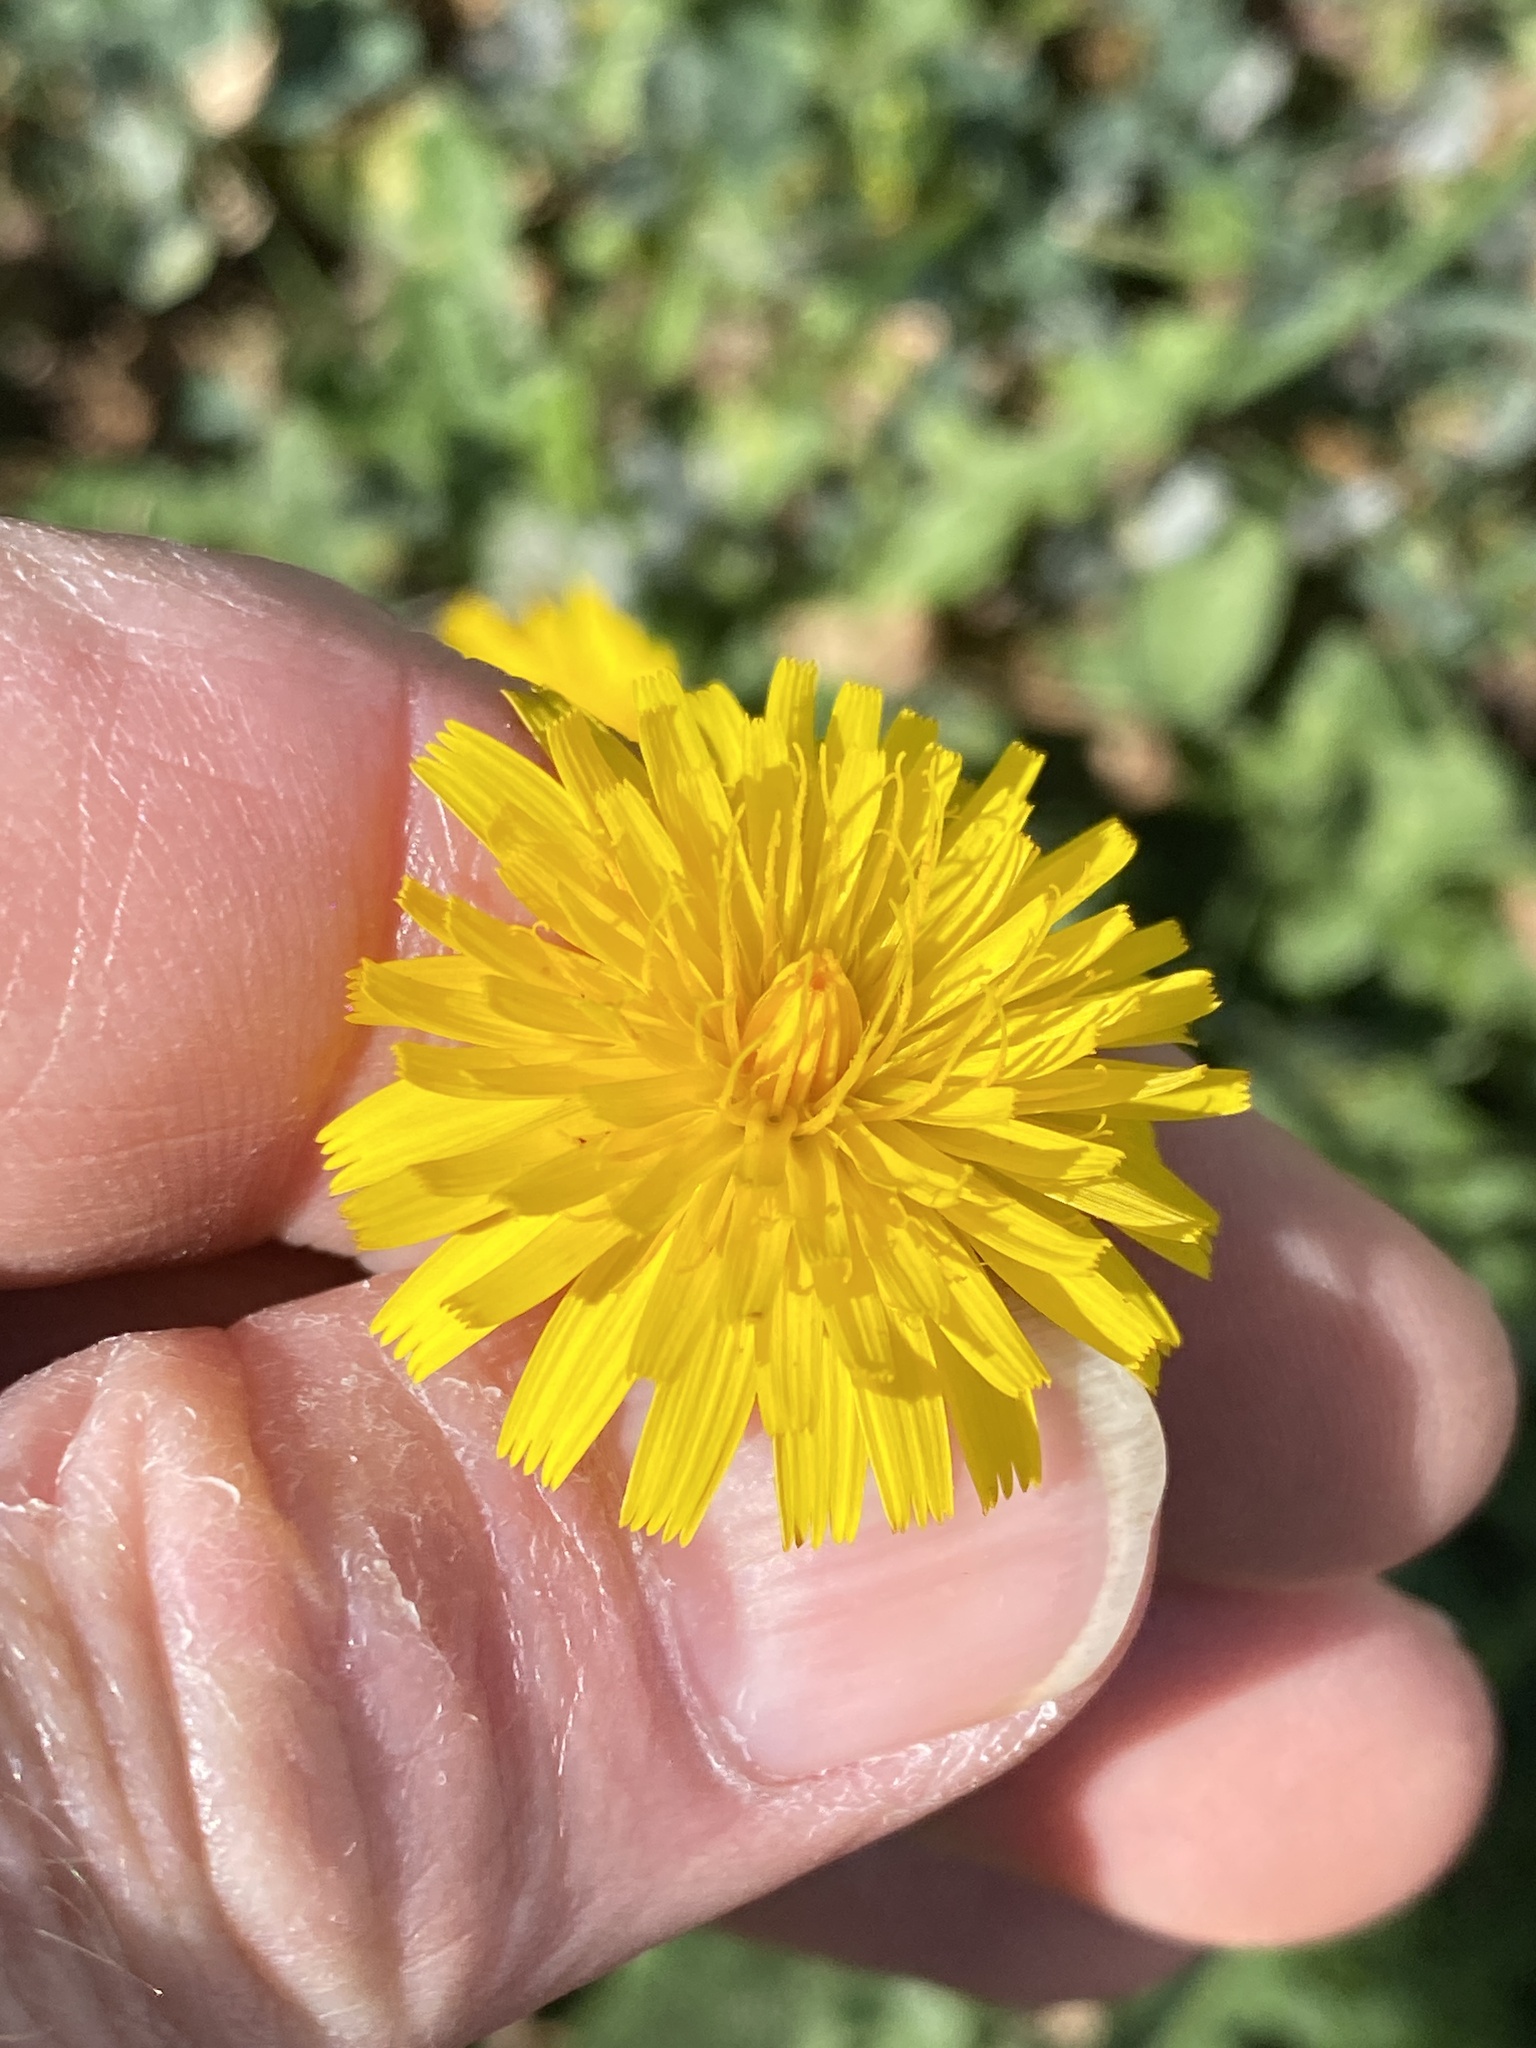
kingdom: Plantae
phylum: Tracheophyta
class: Magnoliopsida
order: Asterales
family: Asteraceae
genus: Hypochaeris
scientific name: Hypochaeris radicata
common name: Flatweed
